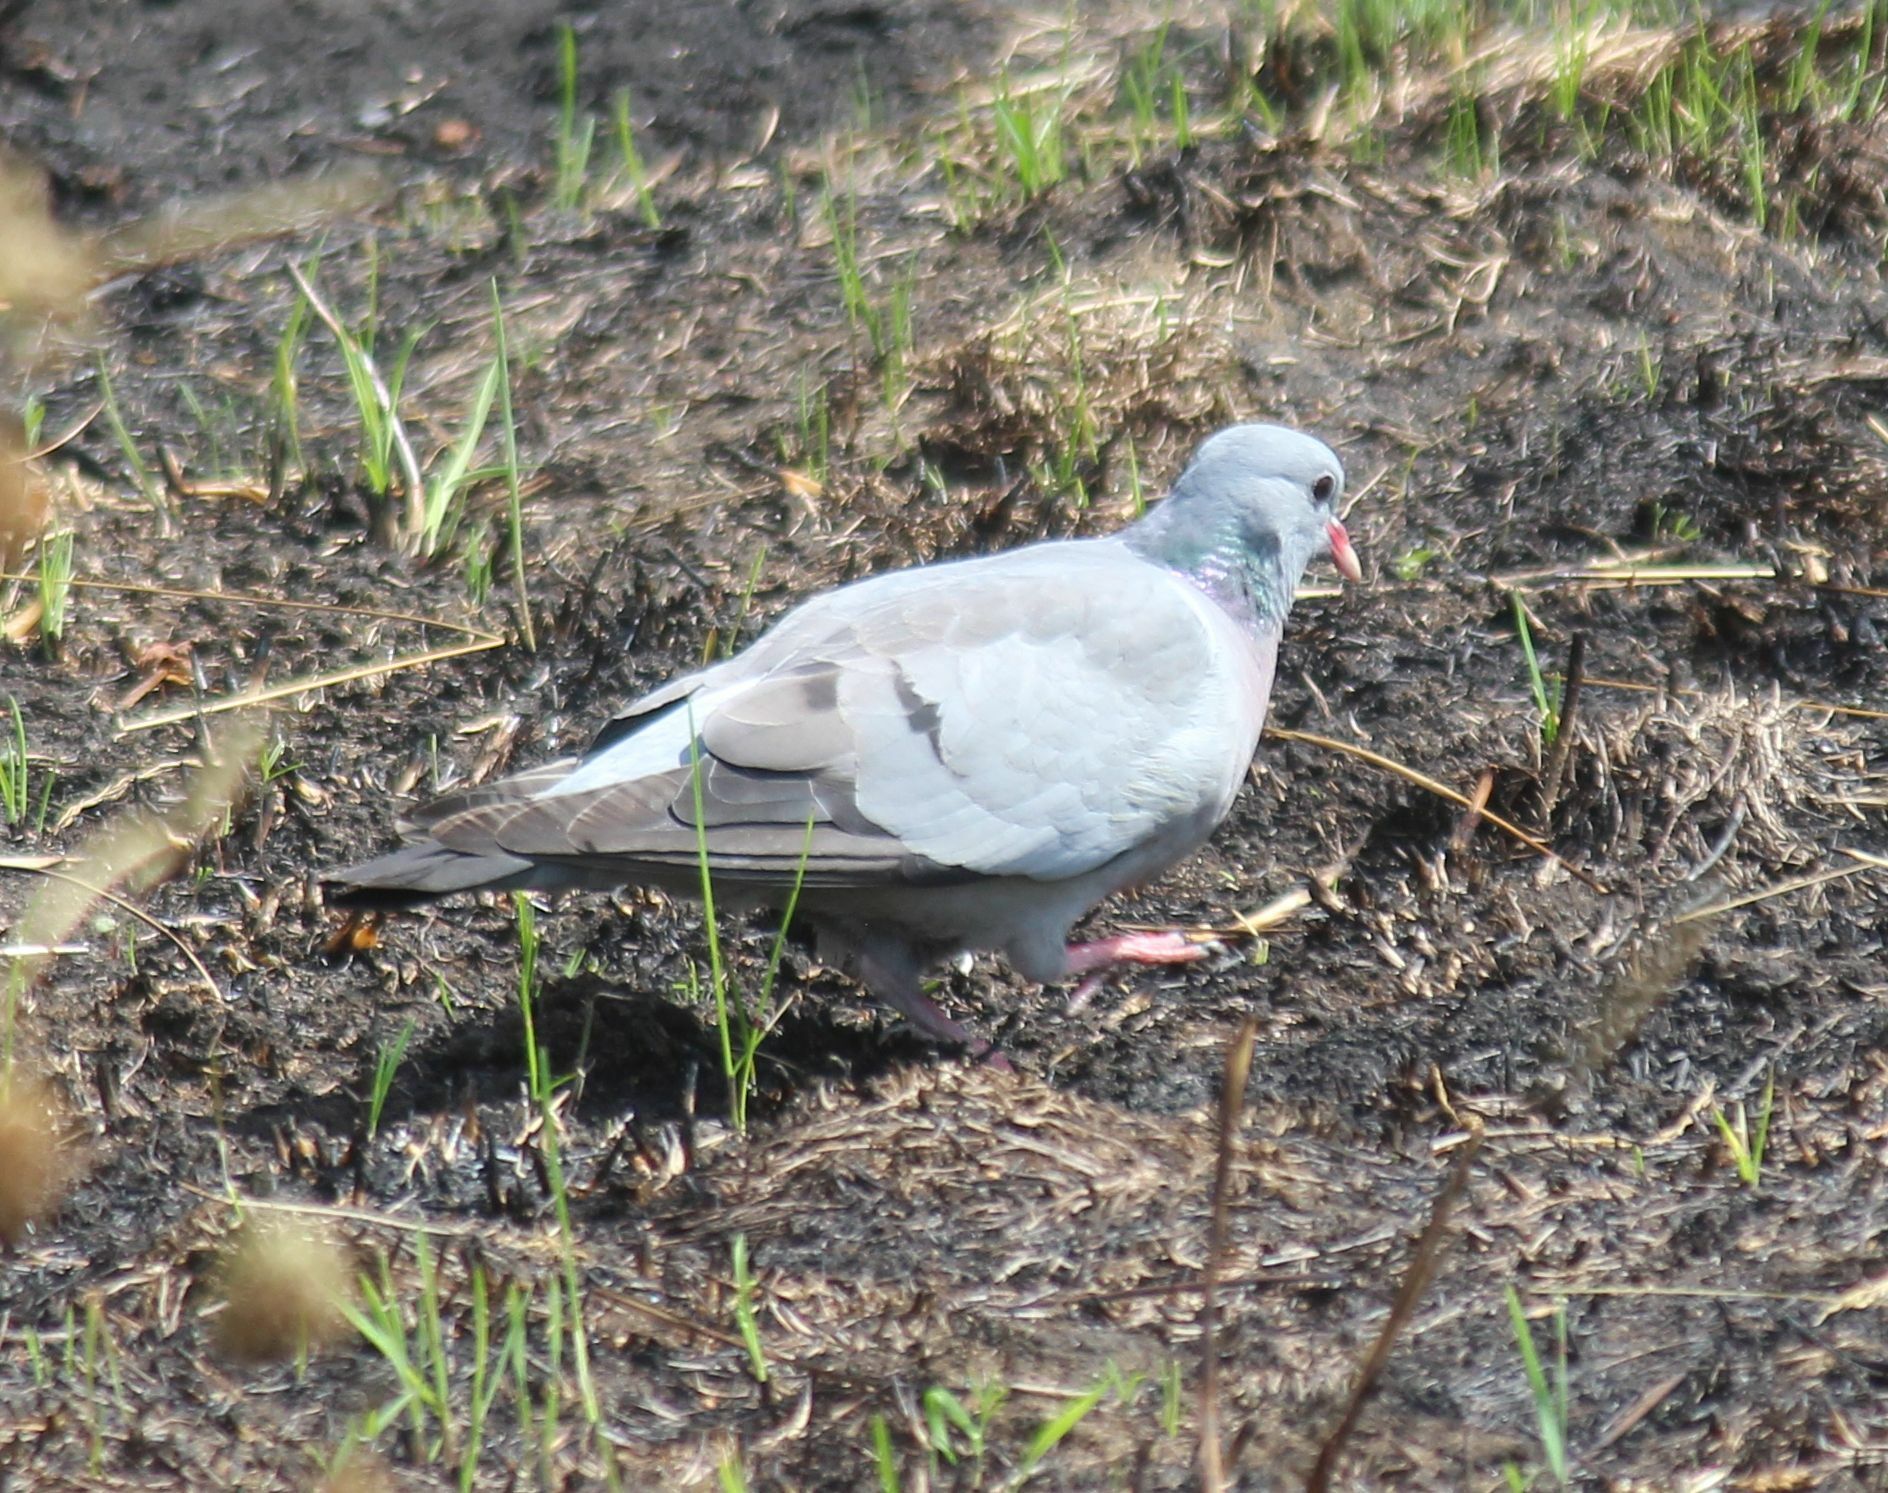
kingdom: Animalia
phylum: Chordata
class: Aves
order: Columbiformes
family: Columbidae
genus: Columba
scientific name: Columba oenas
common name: Stock dove
